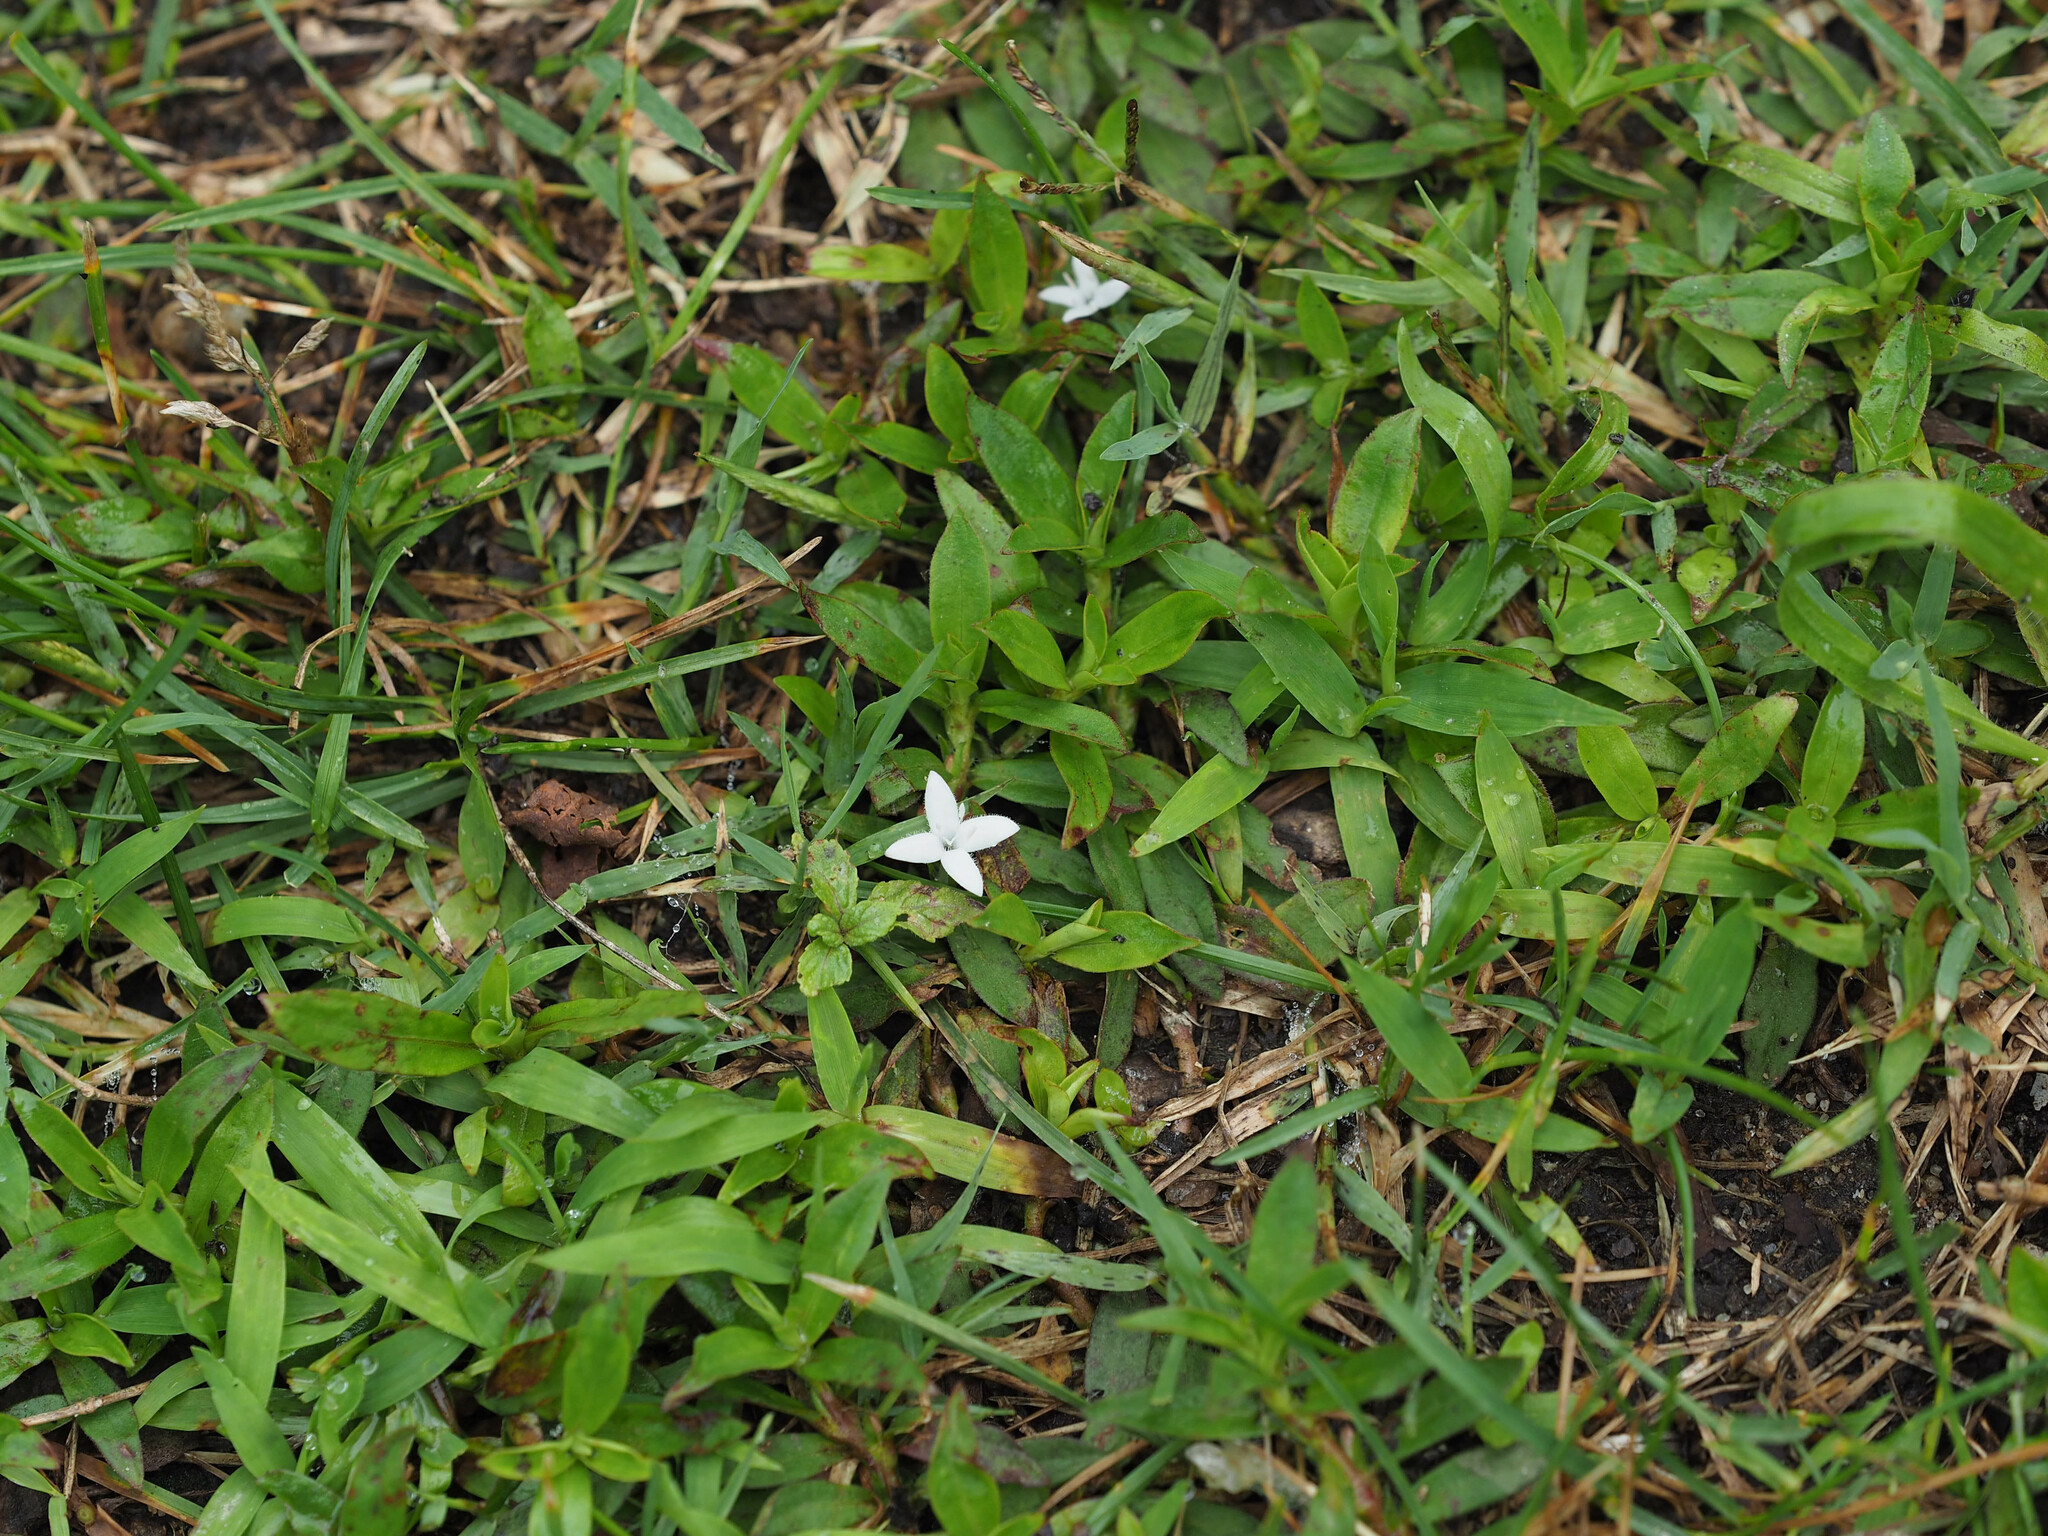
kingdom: Plantae
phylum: Tracheophyta
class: Magnoliopsida
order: Gentianales
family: Rubiaceae
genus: Diodia
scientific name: Diodia virginiana
